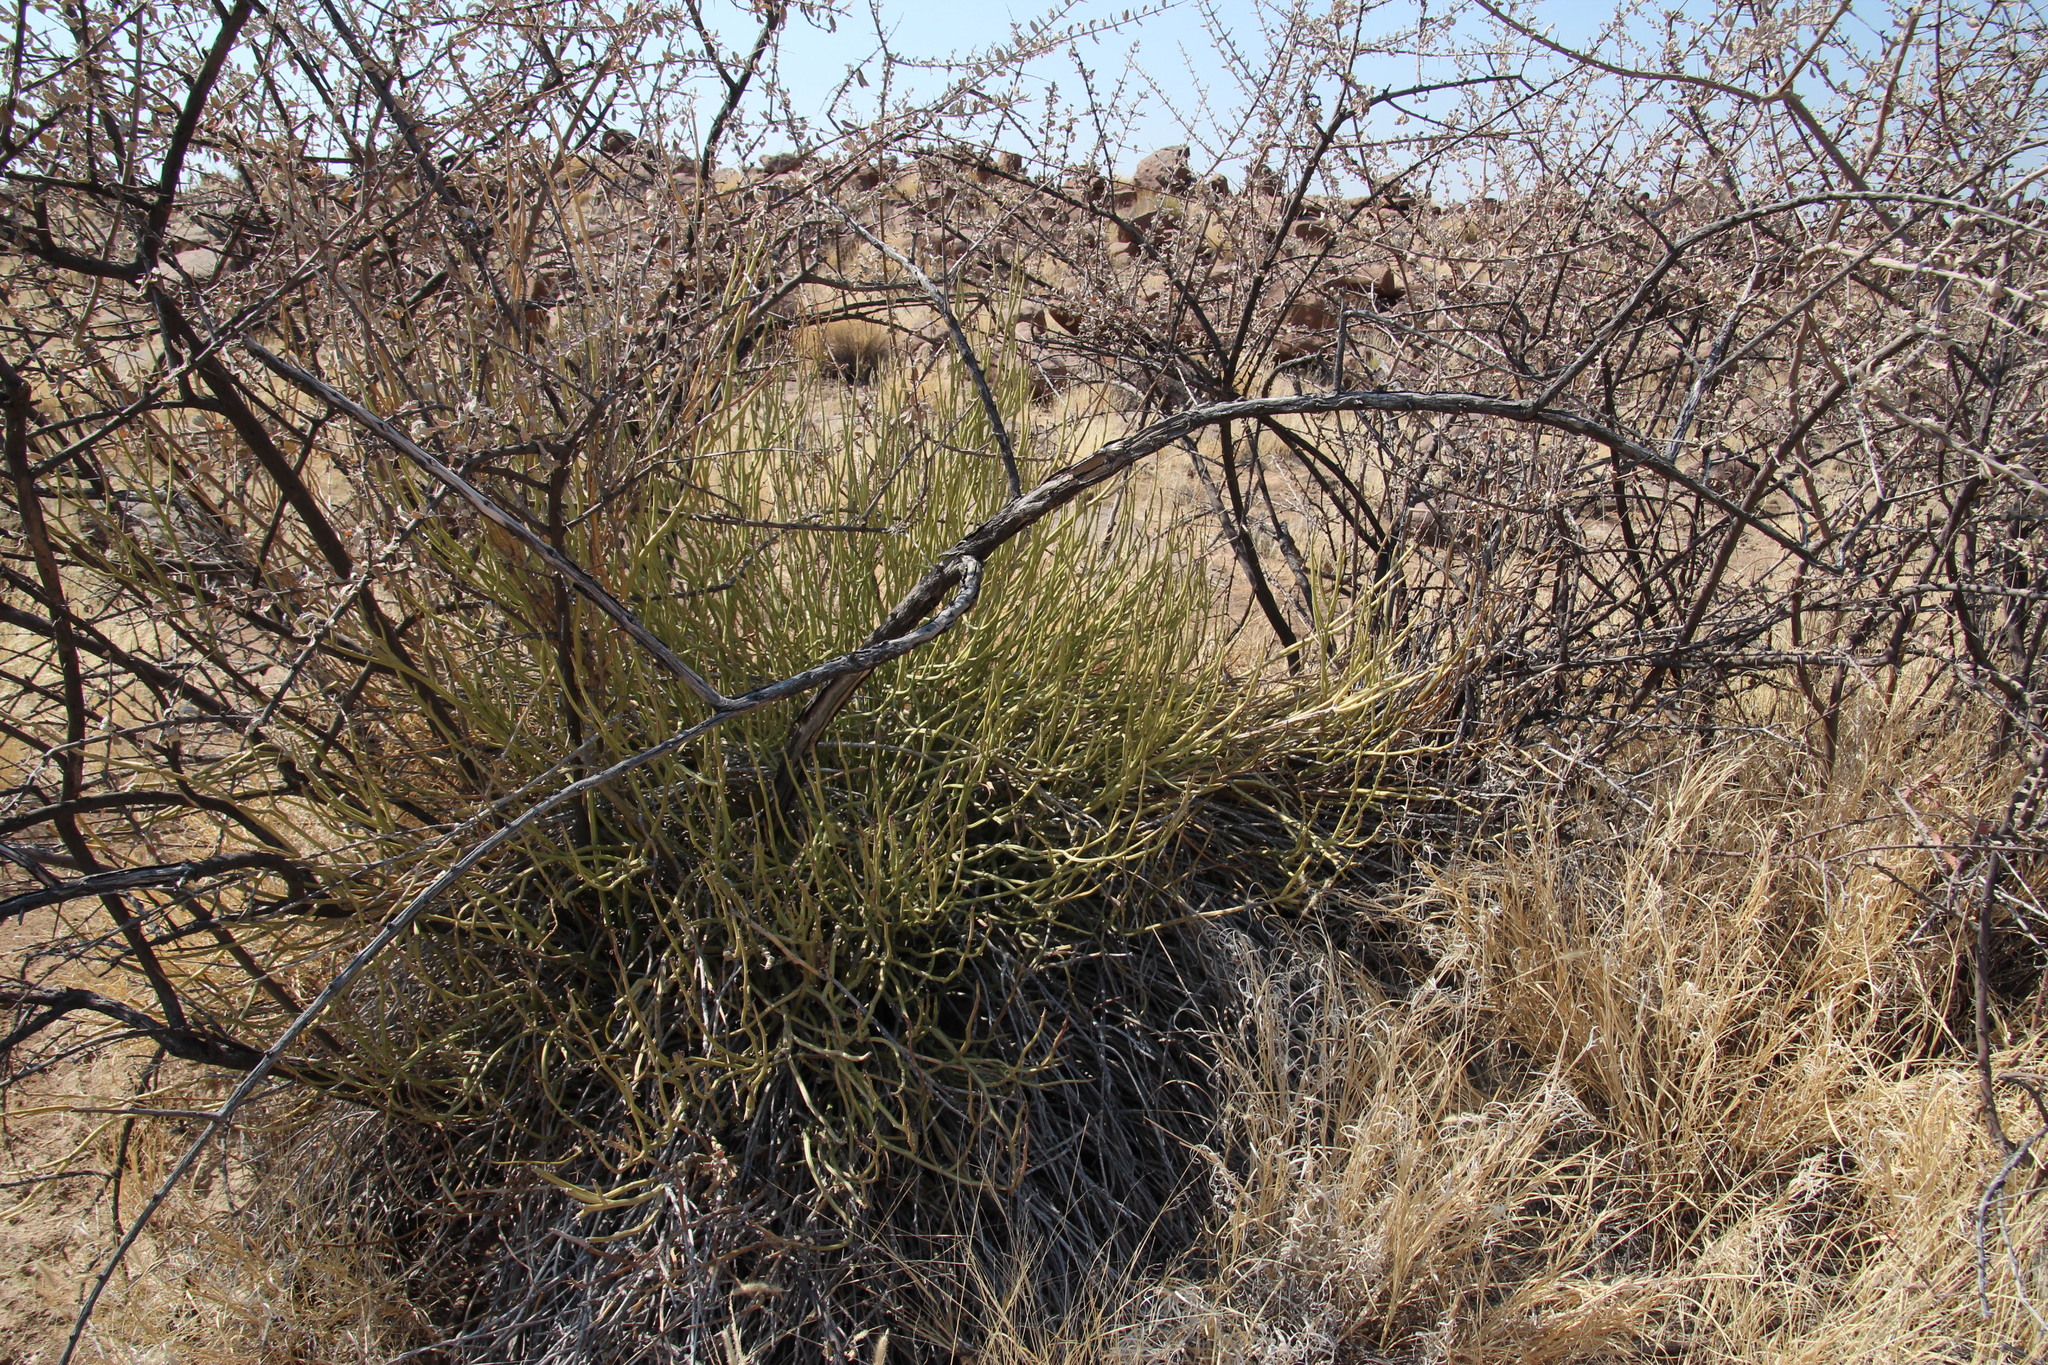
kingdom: Plantae
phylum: Tracheophyta
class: Magnoliopsida
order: Asterales
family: Asteraceae
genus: Curio
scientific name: Curio avasimontanus
